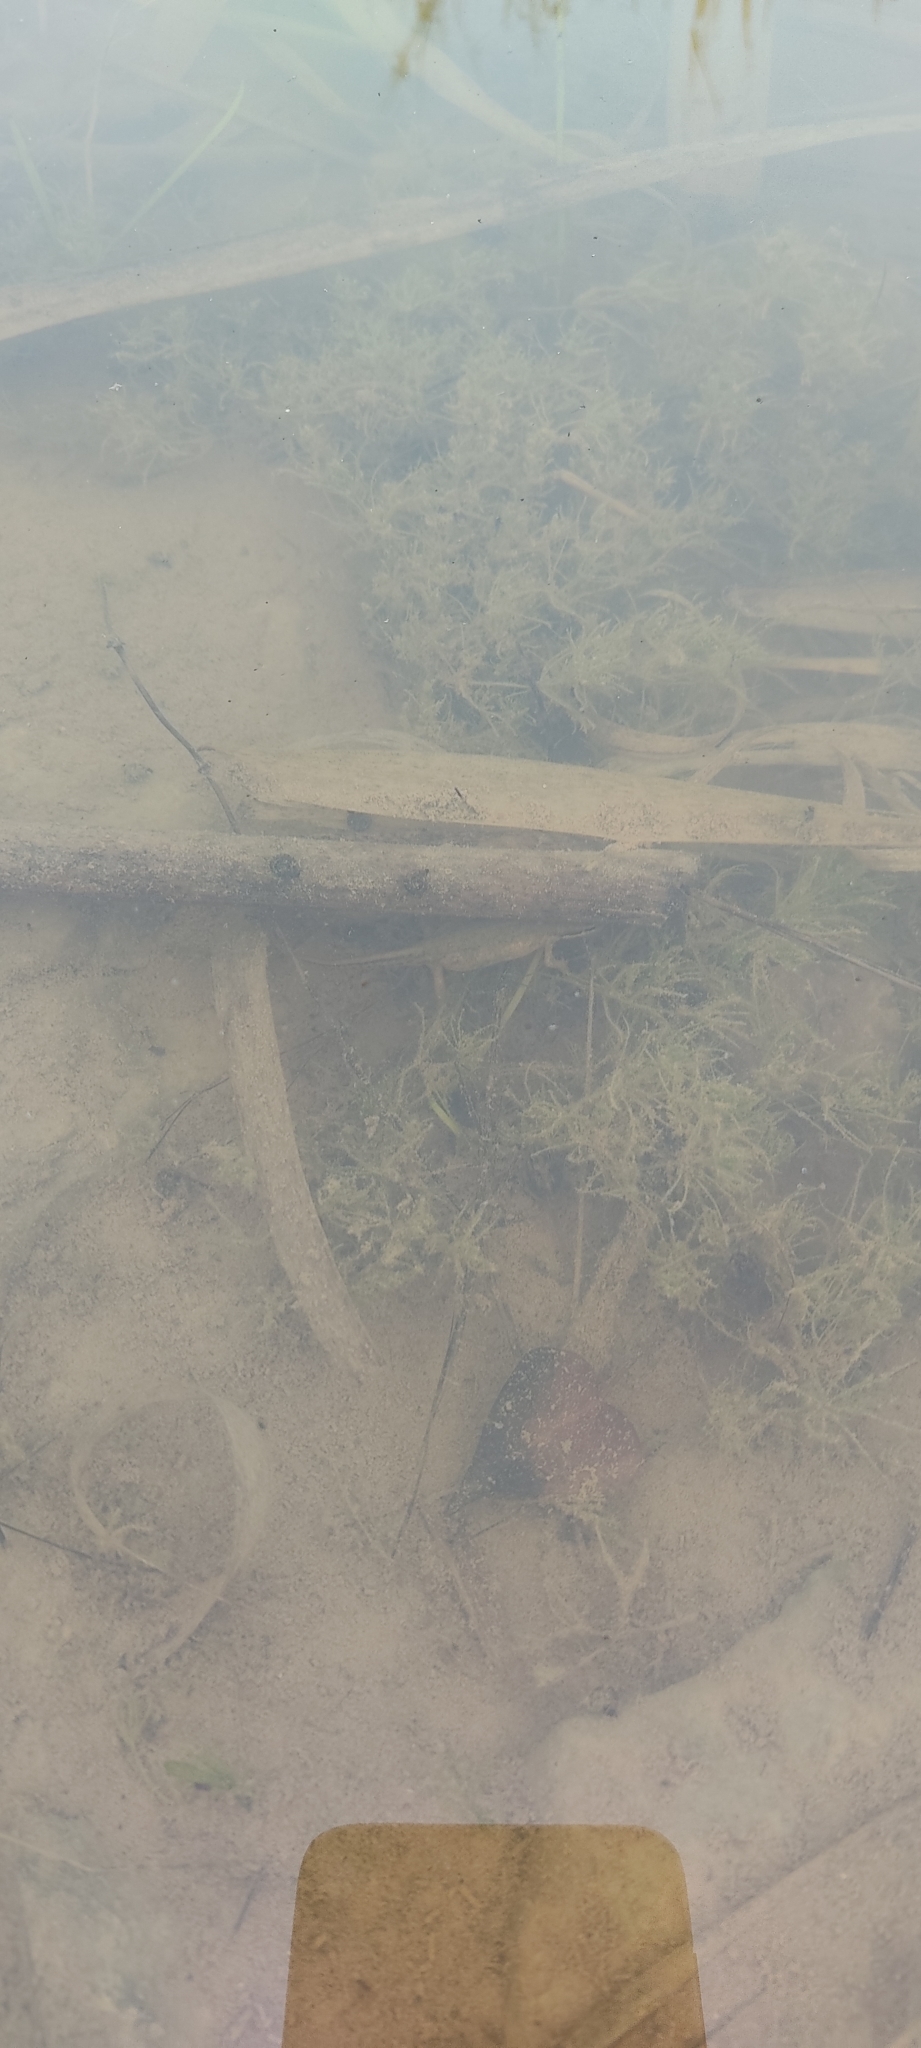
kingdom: Animalia
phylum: Chordata
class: Amphibia
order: Caudata
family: Salamandridae
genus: Lissotriton
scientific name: Lissotriton helveticus
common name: Palmate newt
